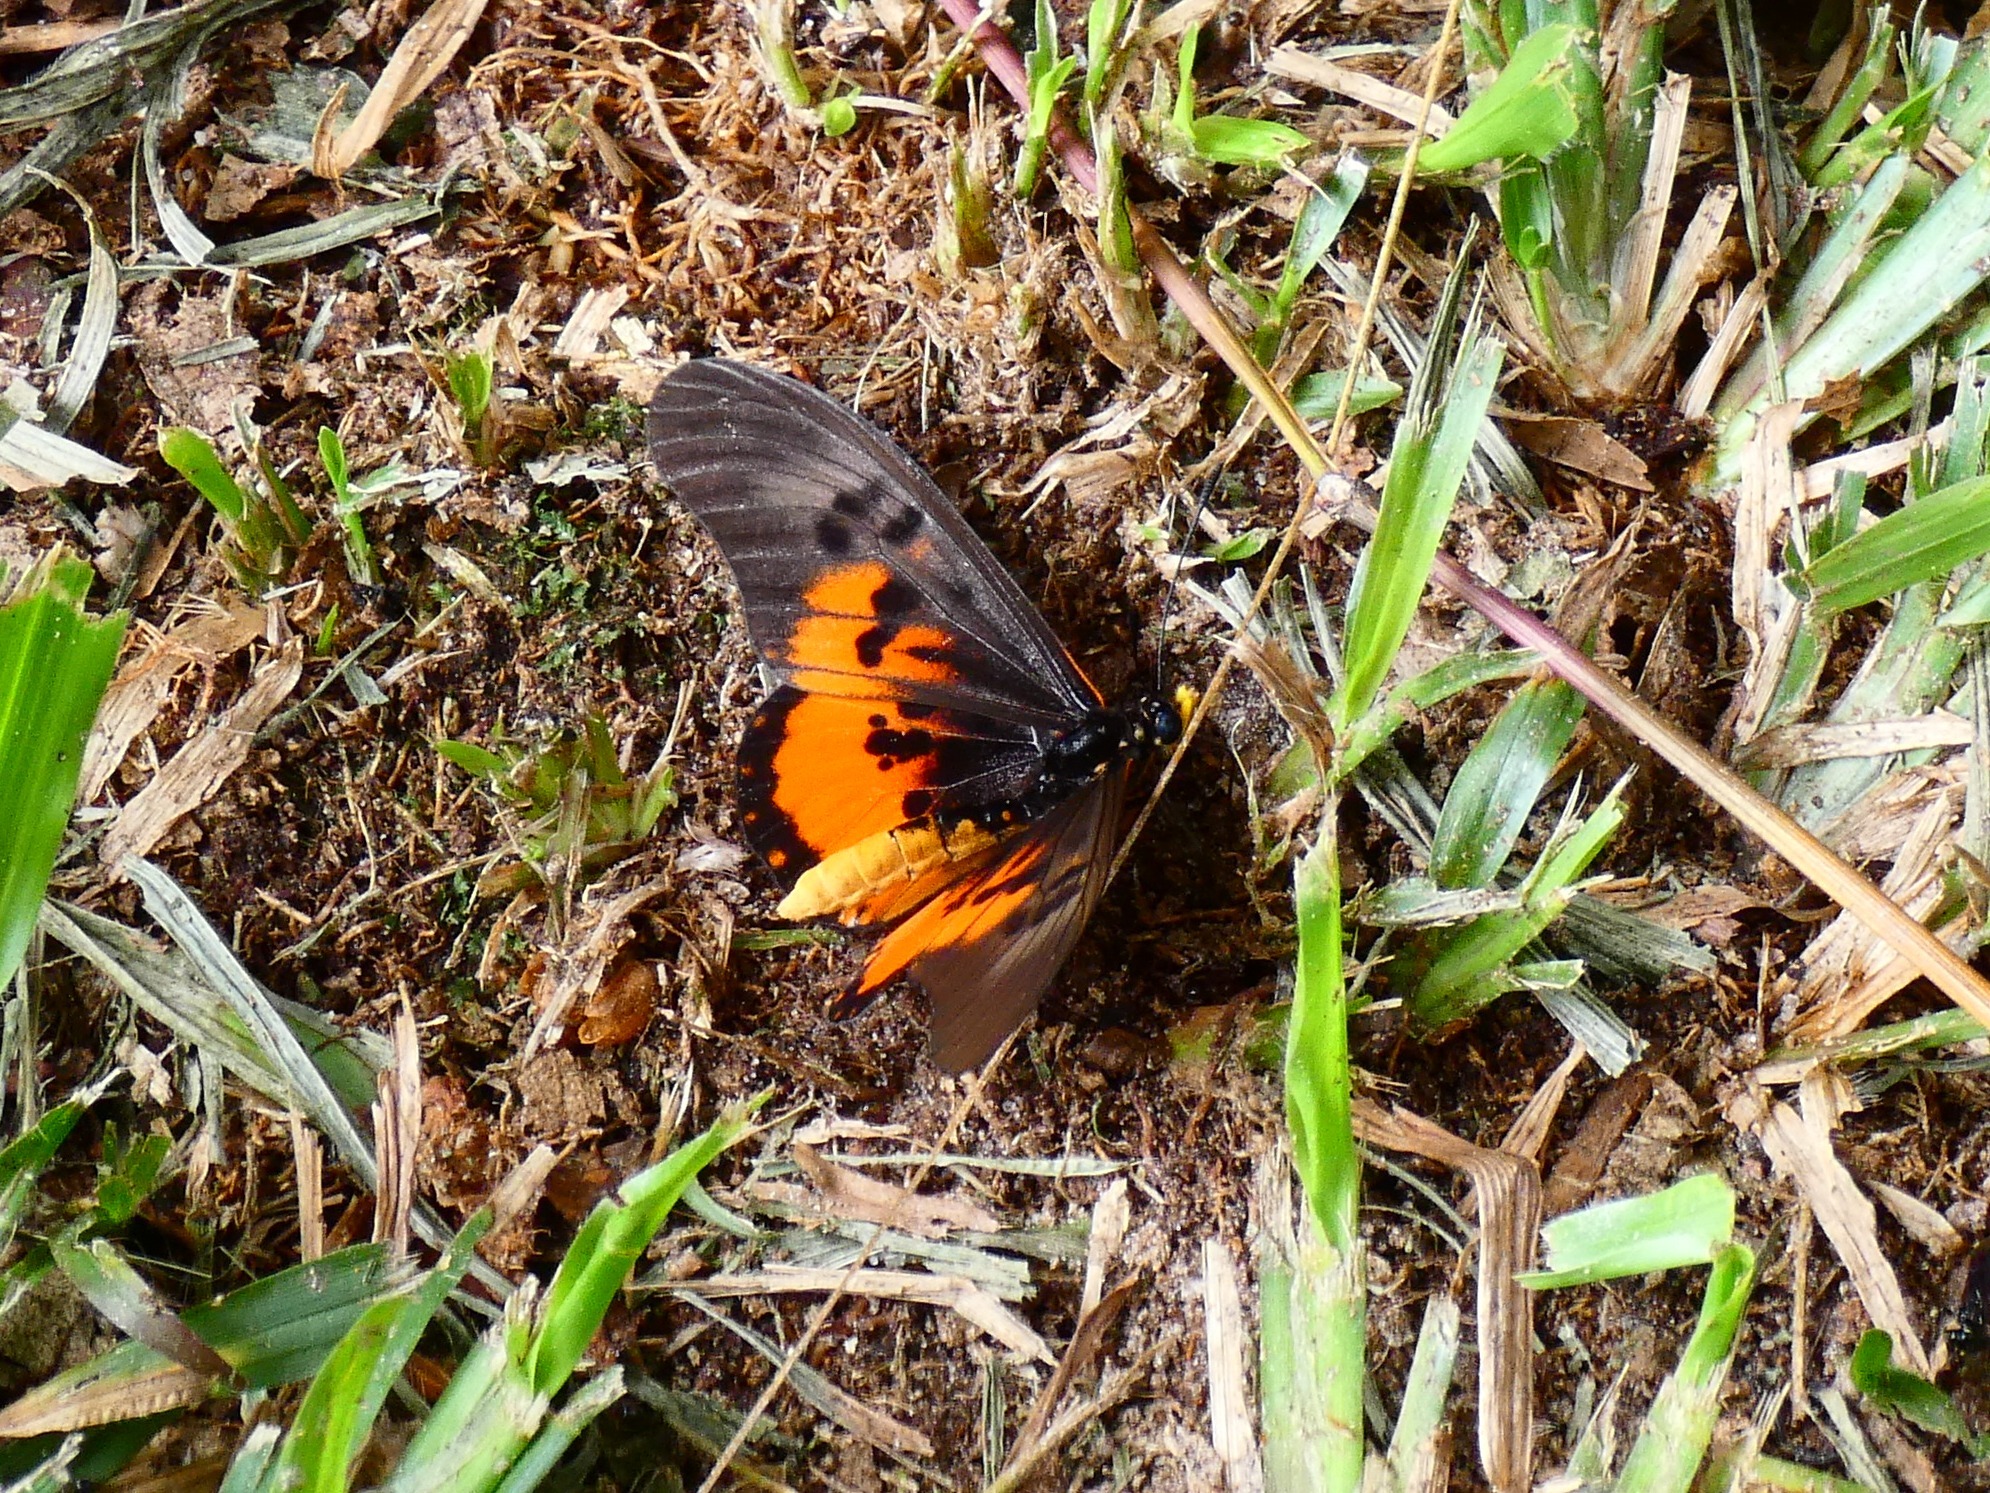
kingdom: Animalia
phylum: Arthropoda
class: Insecta
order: Lepidoptera
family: Nymphalidae
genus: Acraea
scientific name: Acraea
